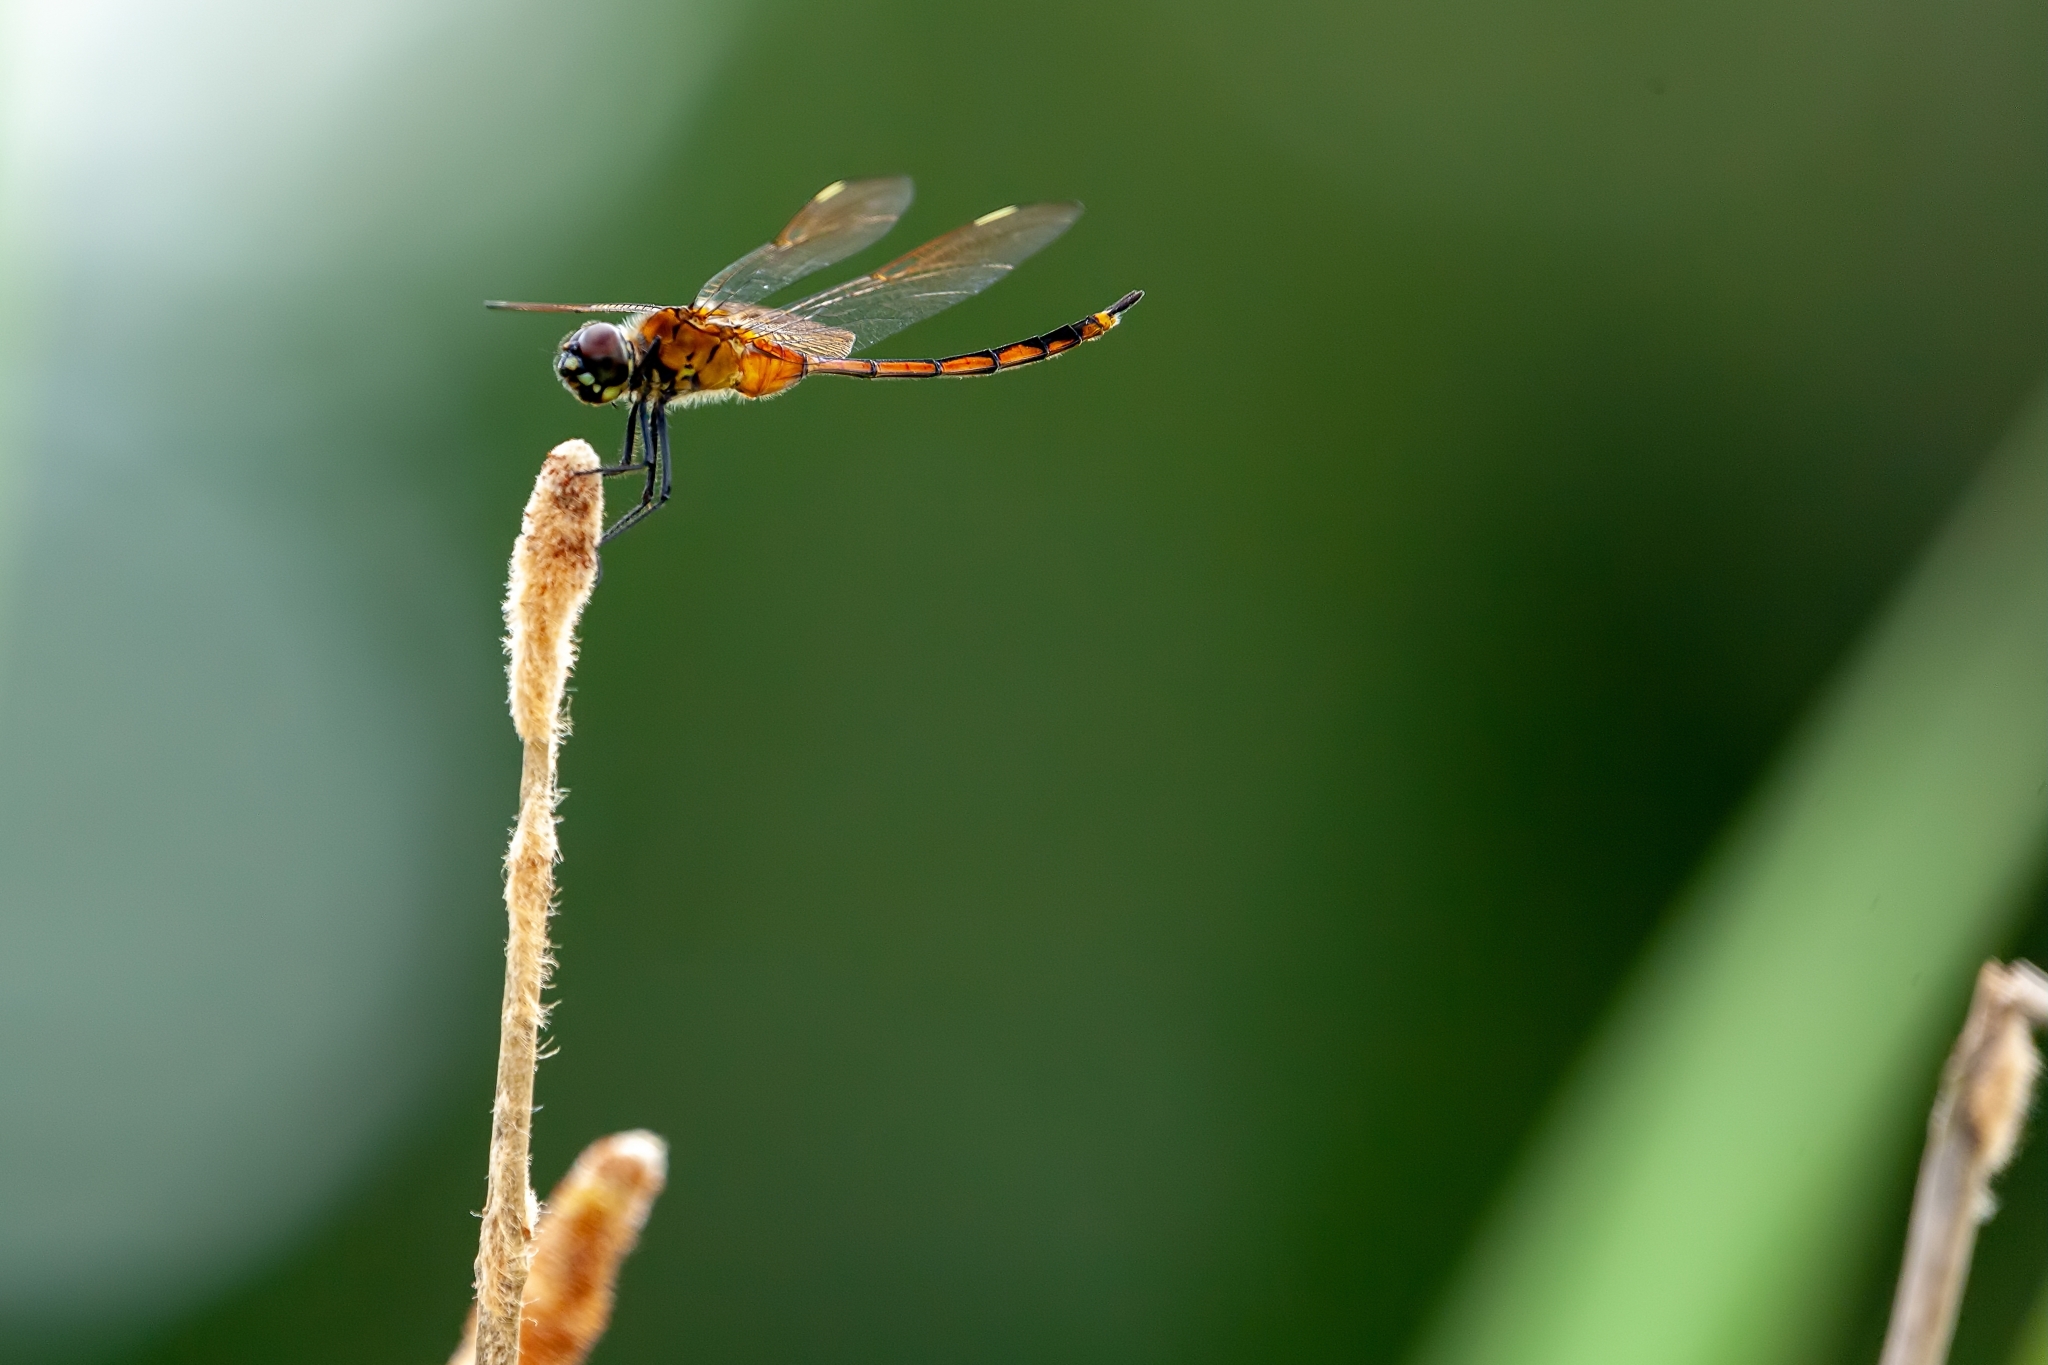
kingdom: Animalia
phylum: Arthropoda
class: Insecta
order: Odonata
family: Libellulidae
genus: Brachymesia
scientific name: Brachymesia gravida
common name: Four-spotted pennant
